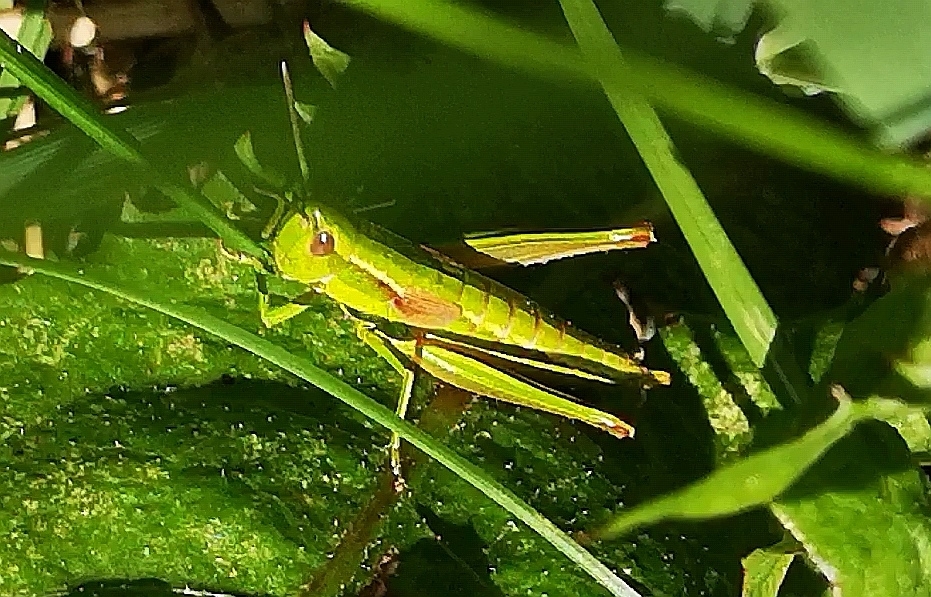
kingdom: Animalia
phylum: Arthropoda
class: Insecta
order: Orthoptera
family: Acrididae
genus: Euthystira
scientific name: Euthystira brachyptera
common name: Small gold grasshopper
